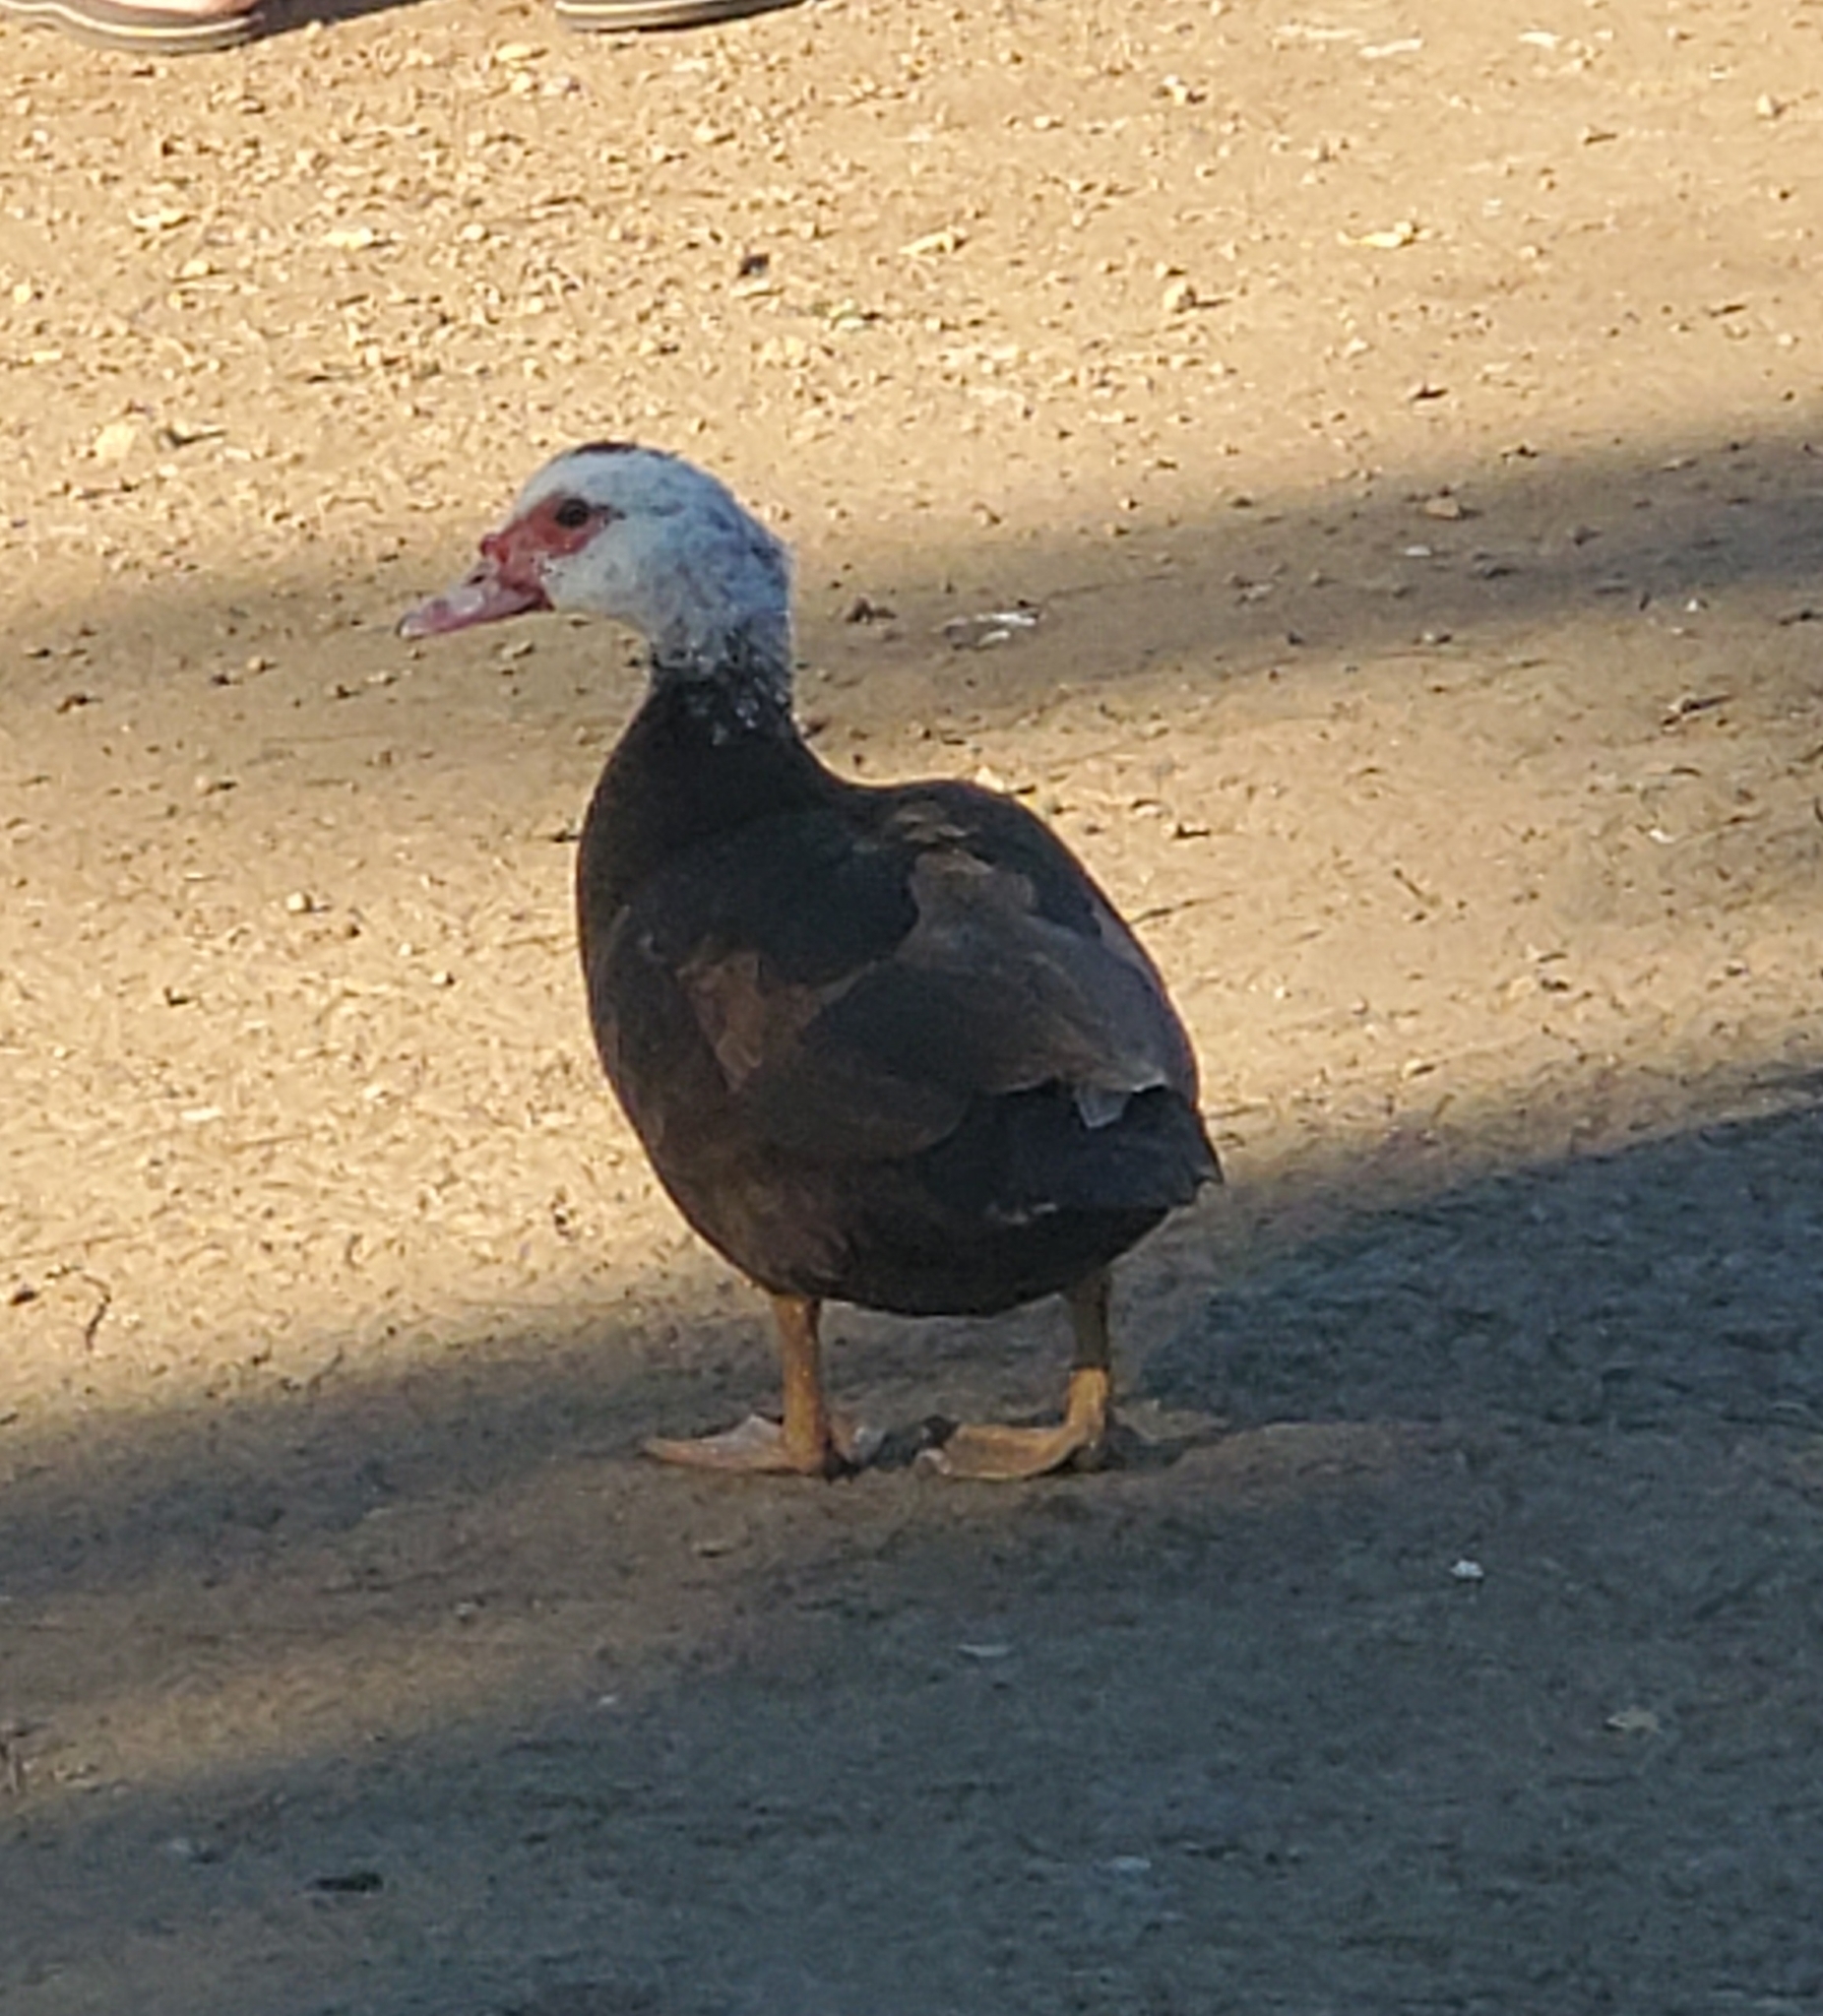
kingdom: Animalia
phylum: Chordata
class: Aves
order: Anseriformes
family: Anatidae
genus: Cairina
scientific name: Cairina moschata
